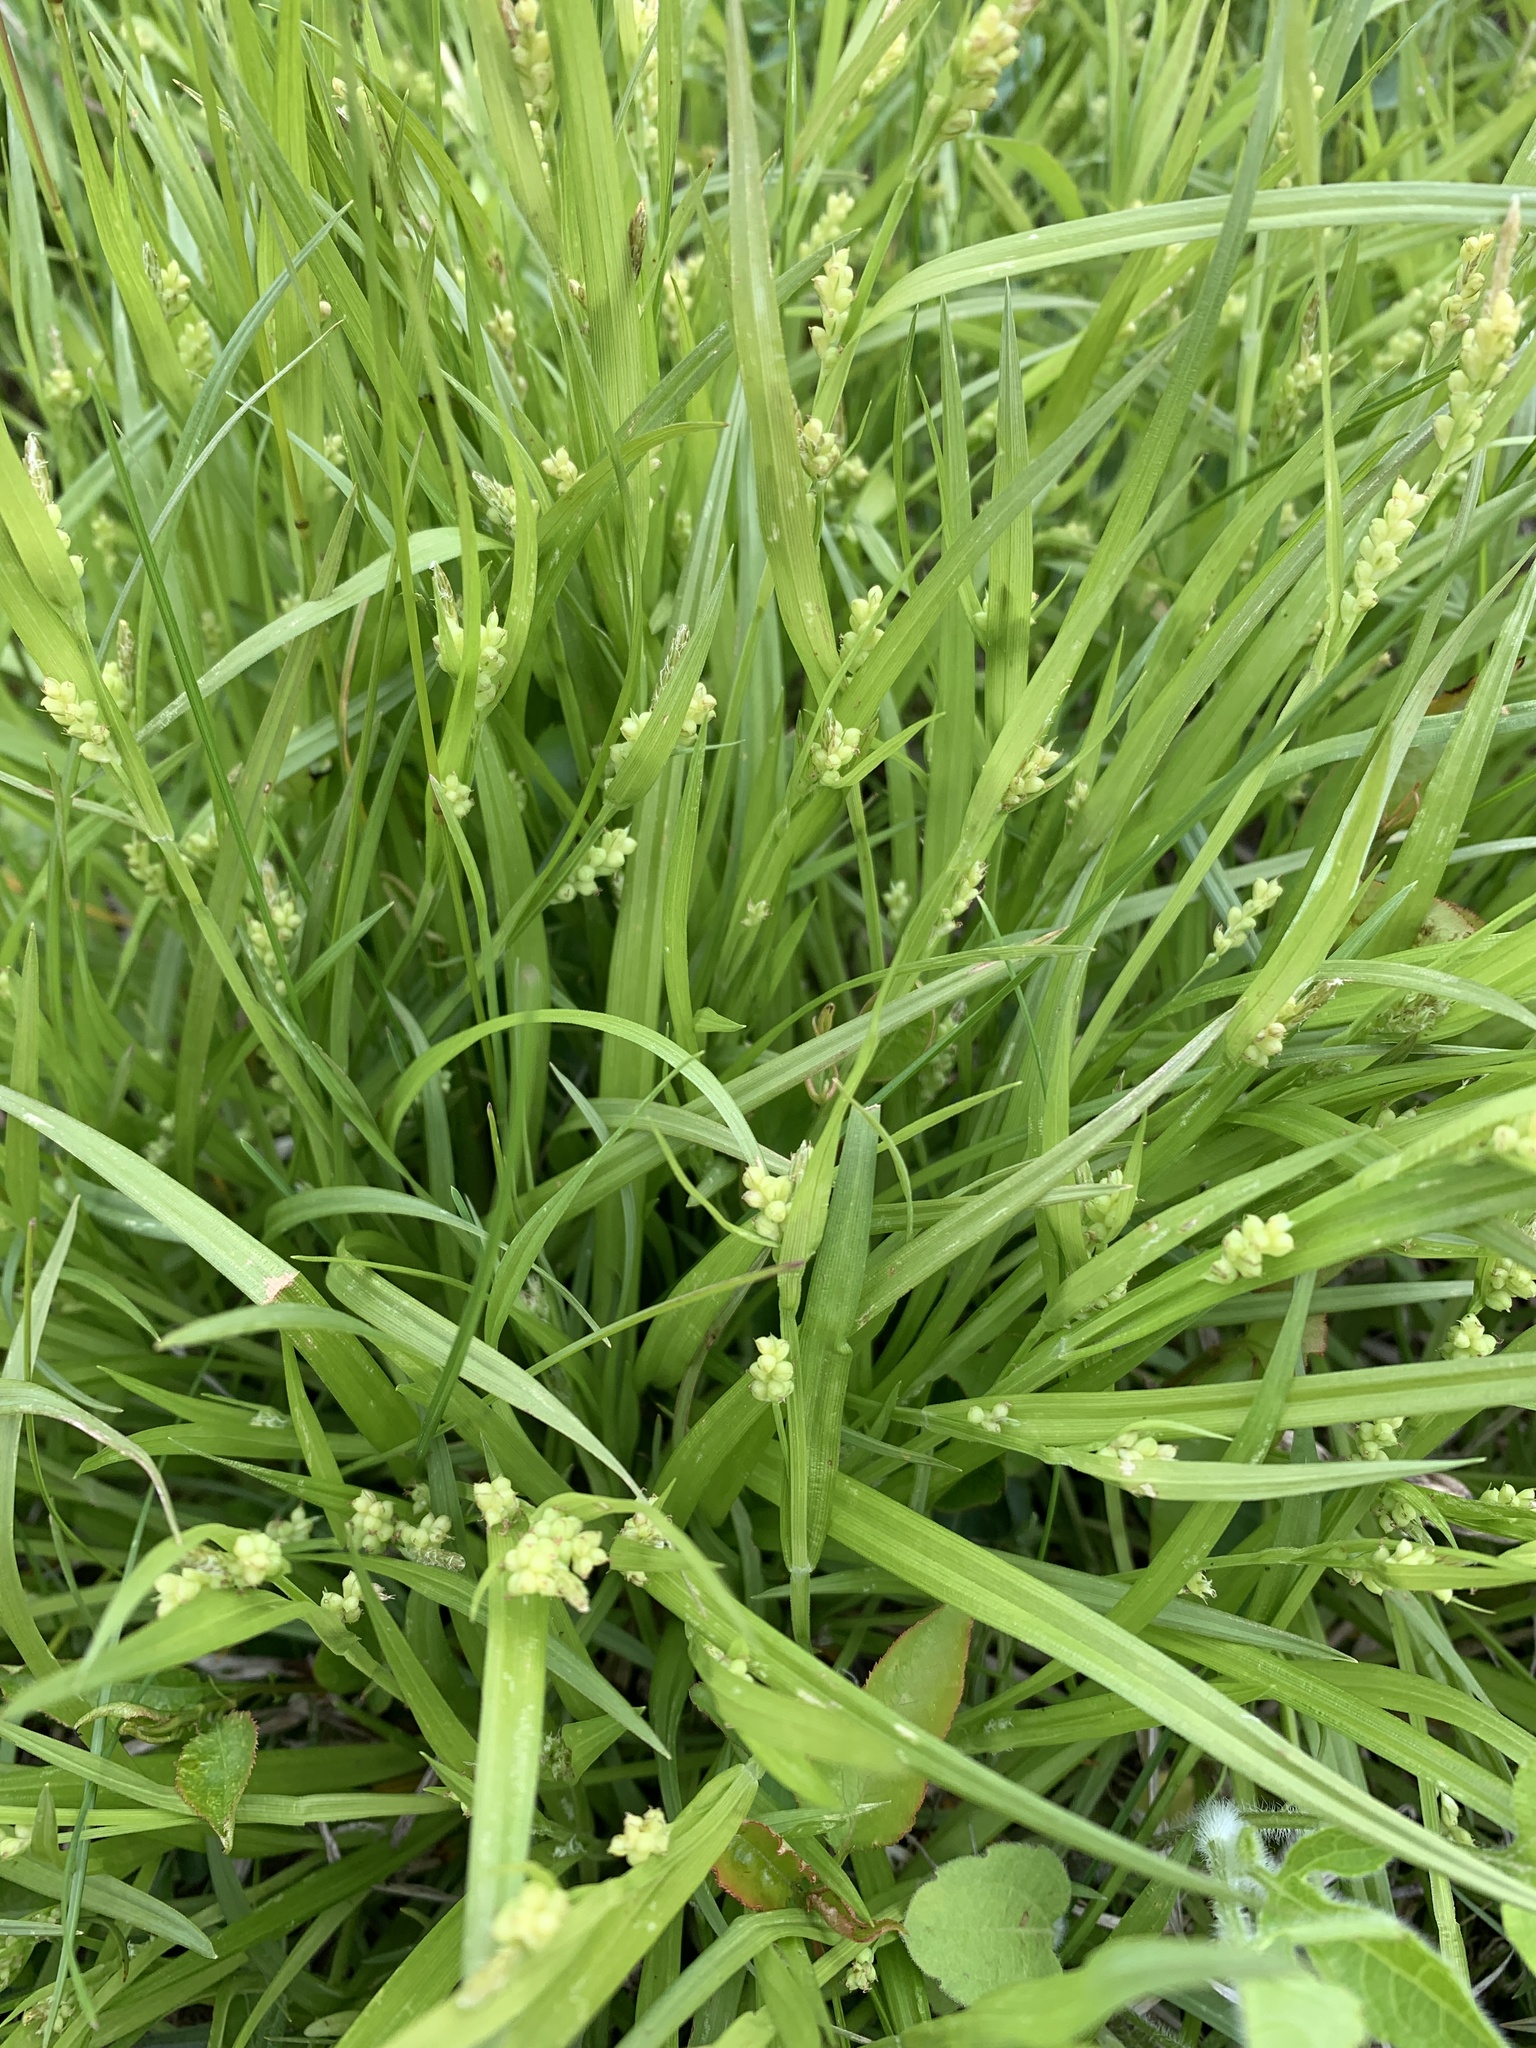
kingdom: Plantae
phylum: Tracheophyta
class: Liliopsida
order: Poales
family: Cyperaceae
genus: Carex
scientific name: Carex blanda
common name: Bland sedge
